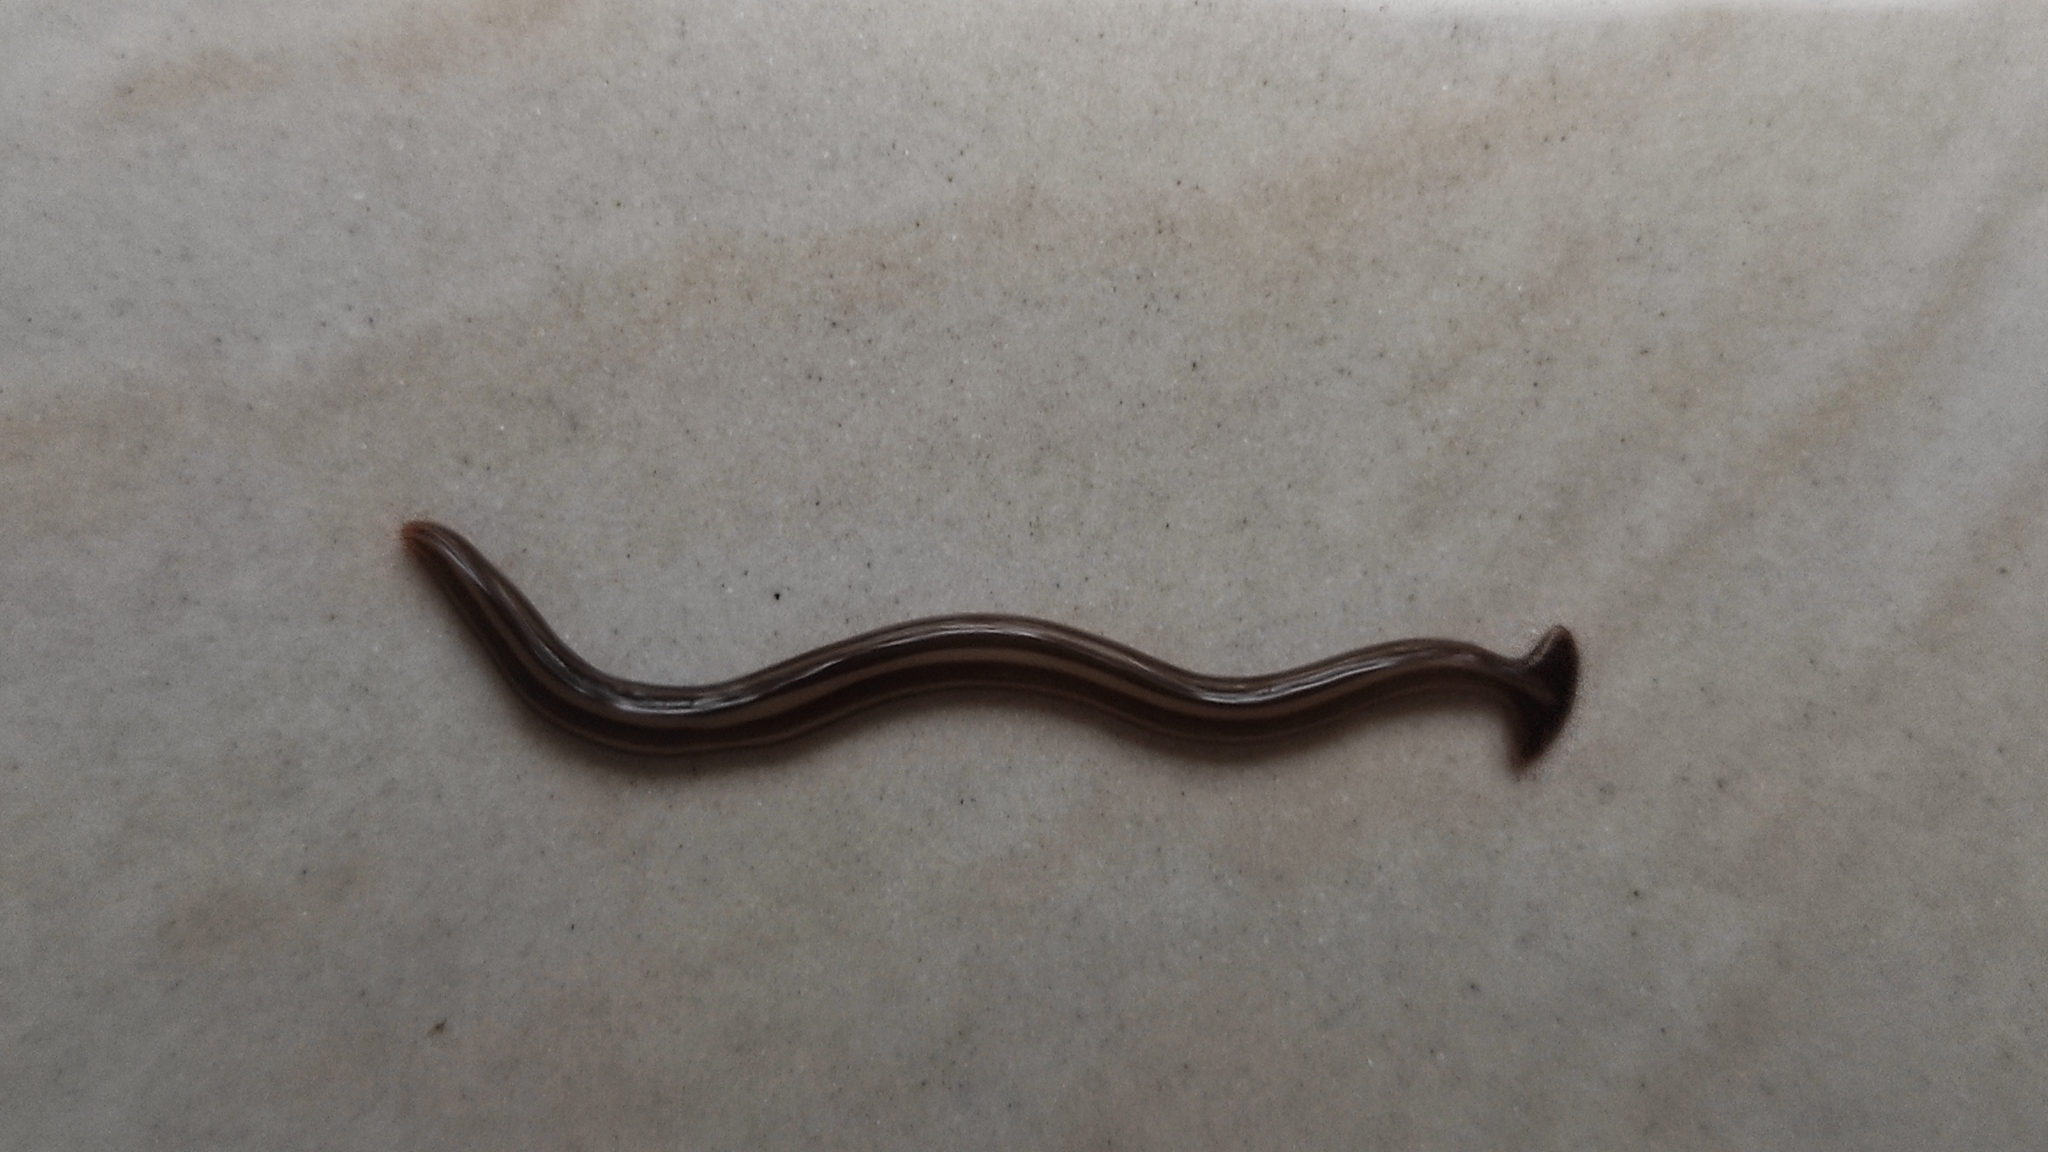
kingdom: Animalia
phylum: Platyhelminthes
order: Tricladida
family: Geoplanidae
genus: Humbertium
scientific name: Humbertium proserpina
